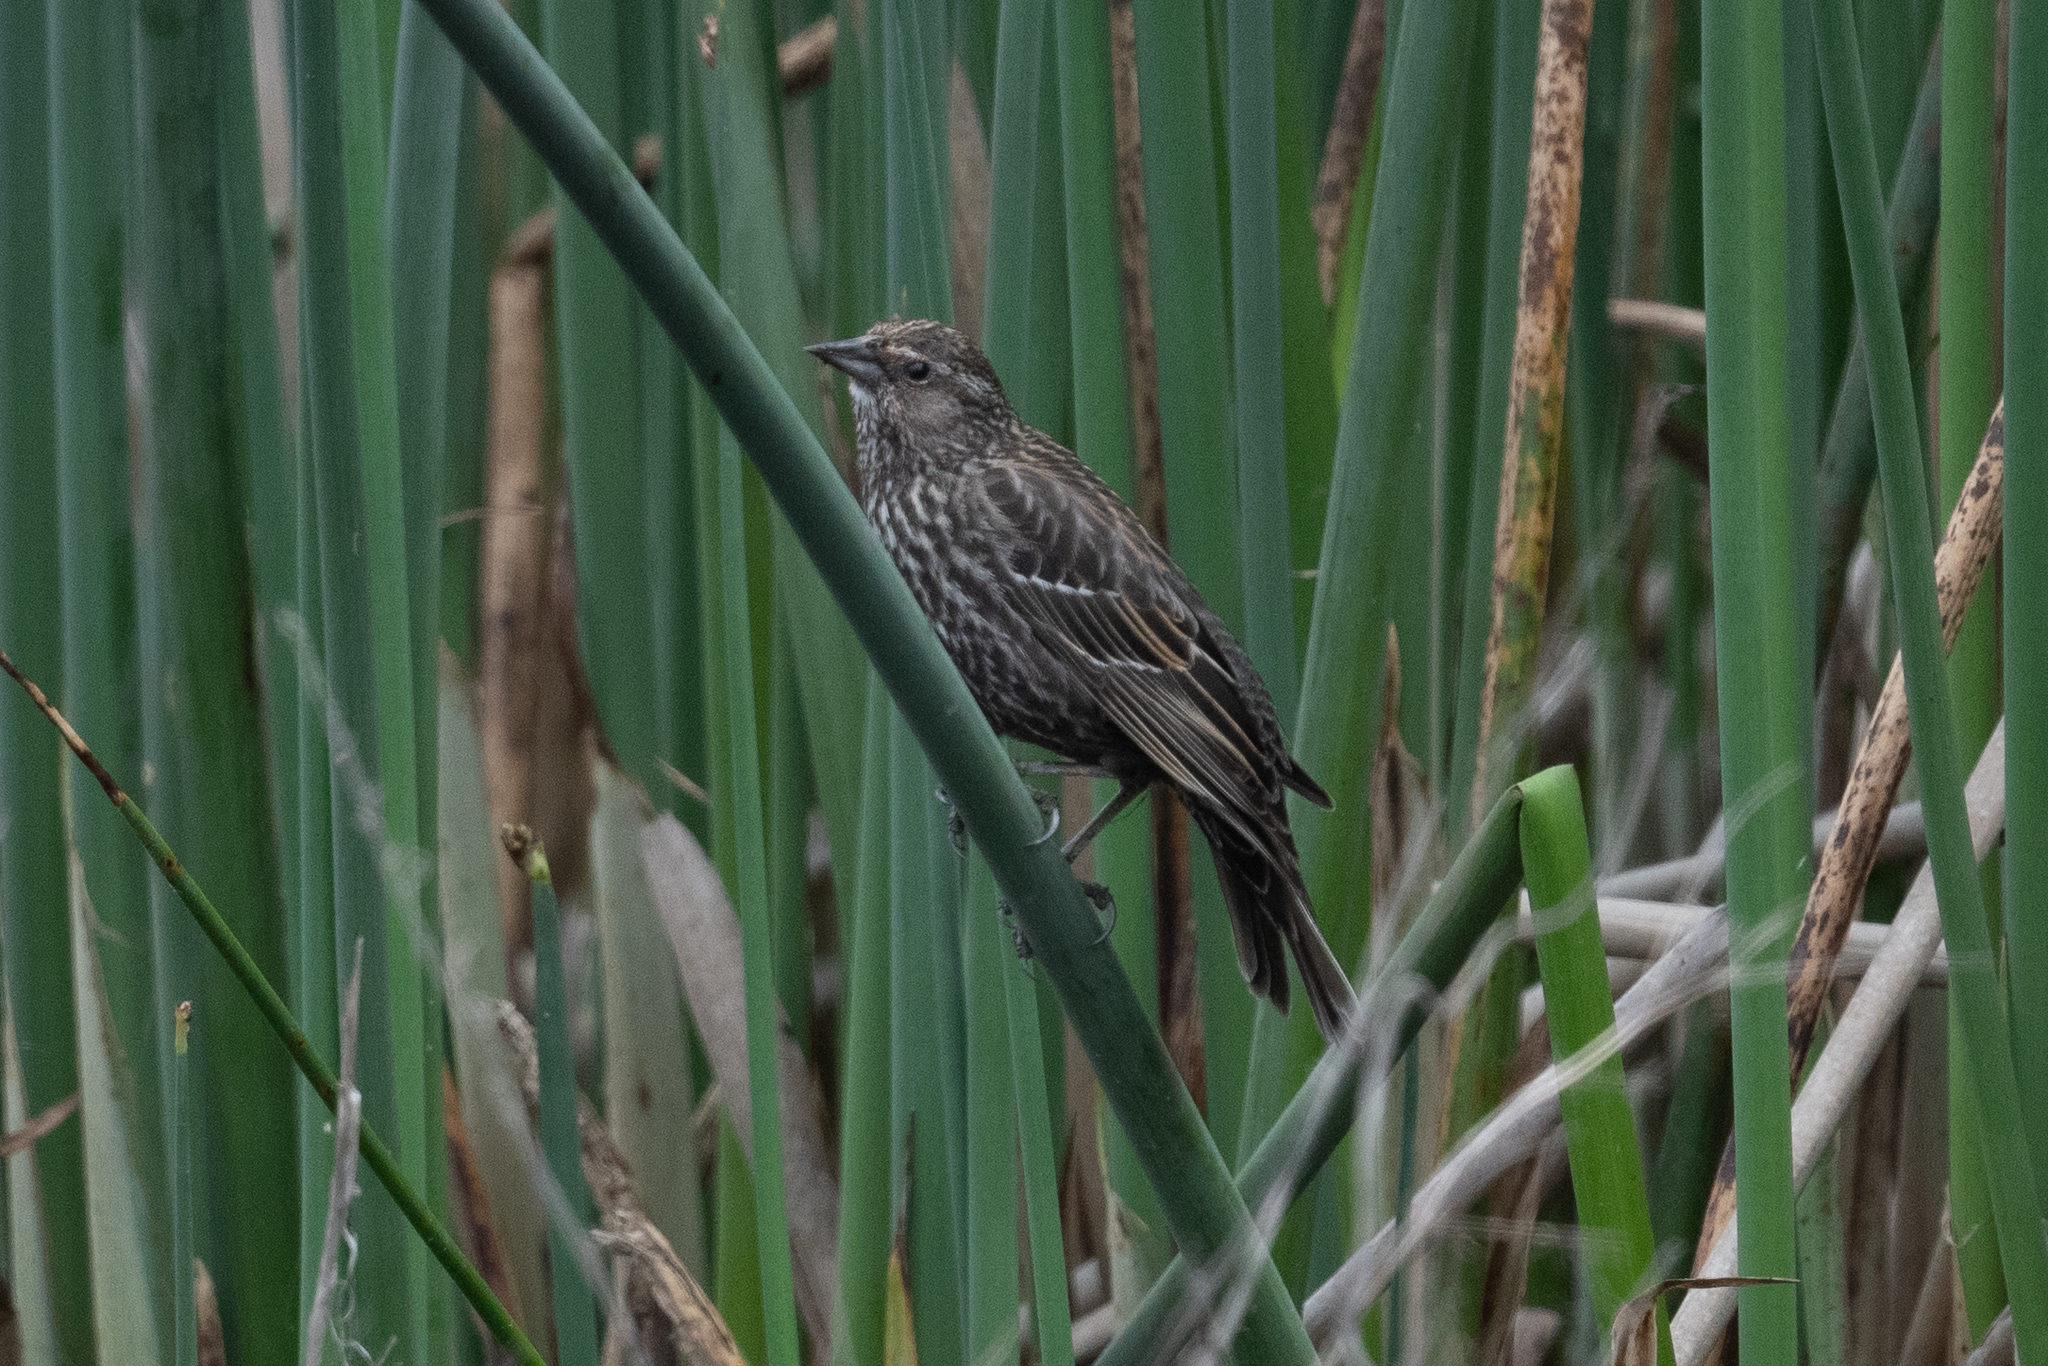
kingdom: Animalia
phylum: Chordata
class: Aves
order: Passeriformes
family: Icteridae
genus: Agelaius
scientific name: Agelaius phoeniceus
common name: Red-winged blackbird
